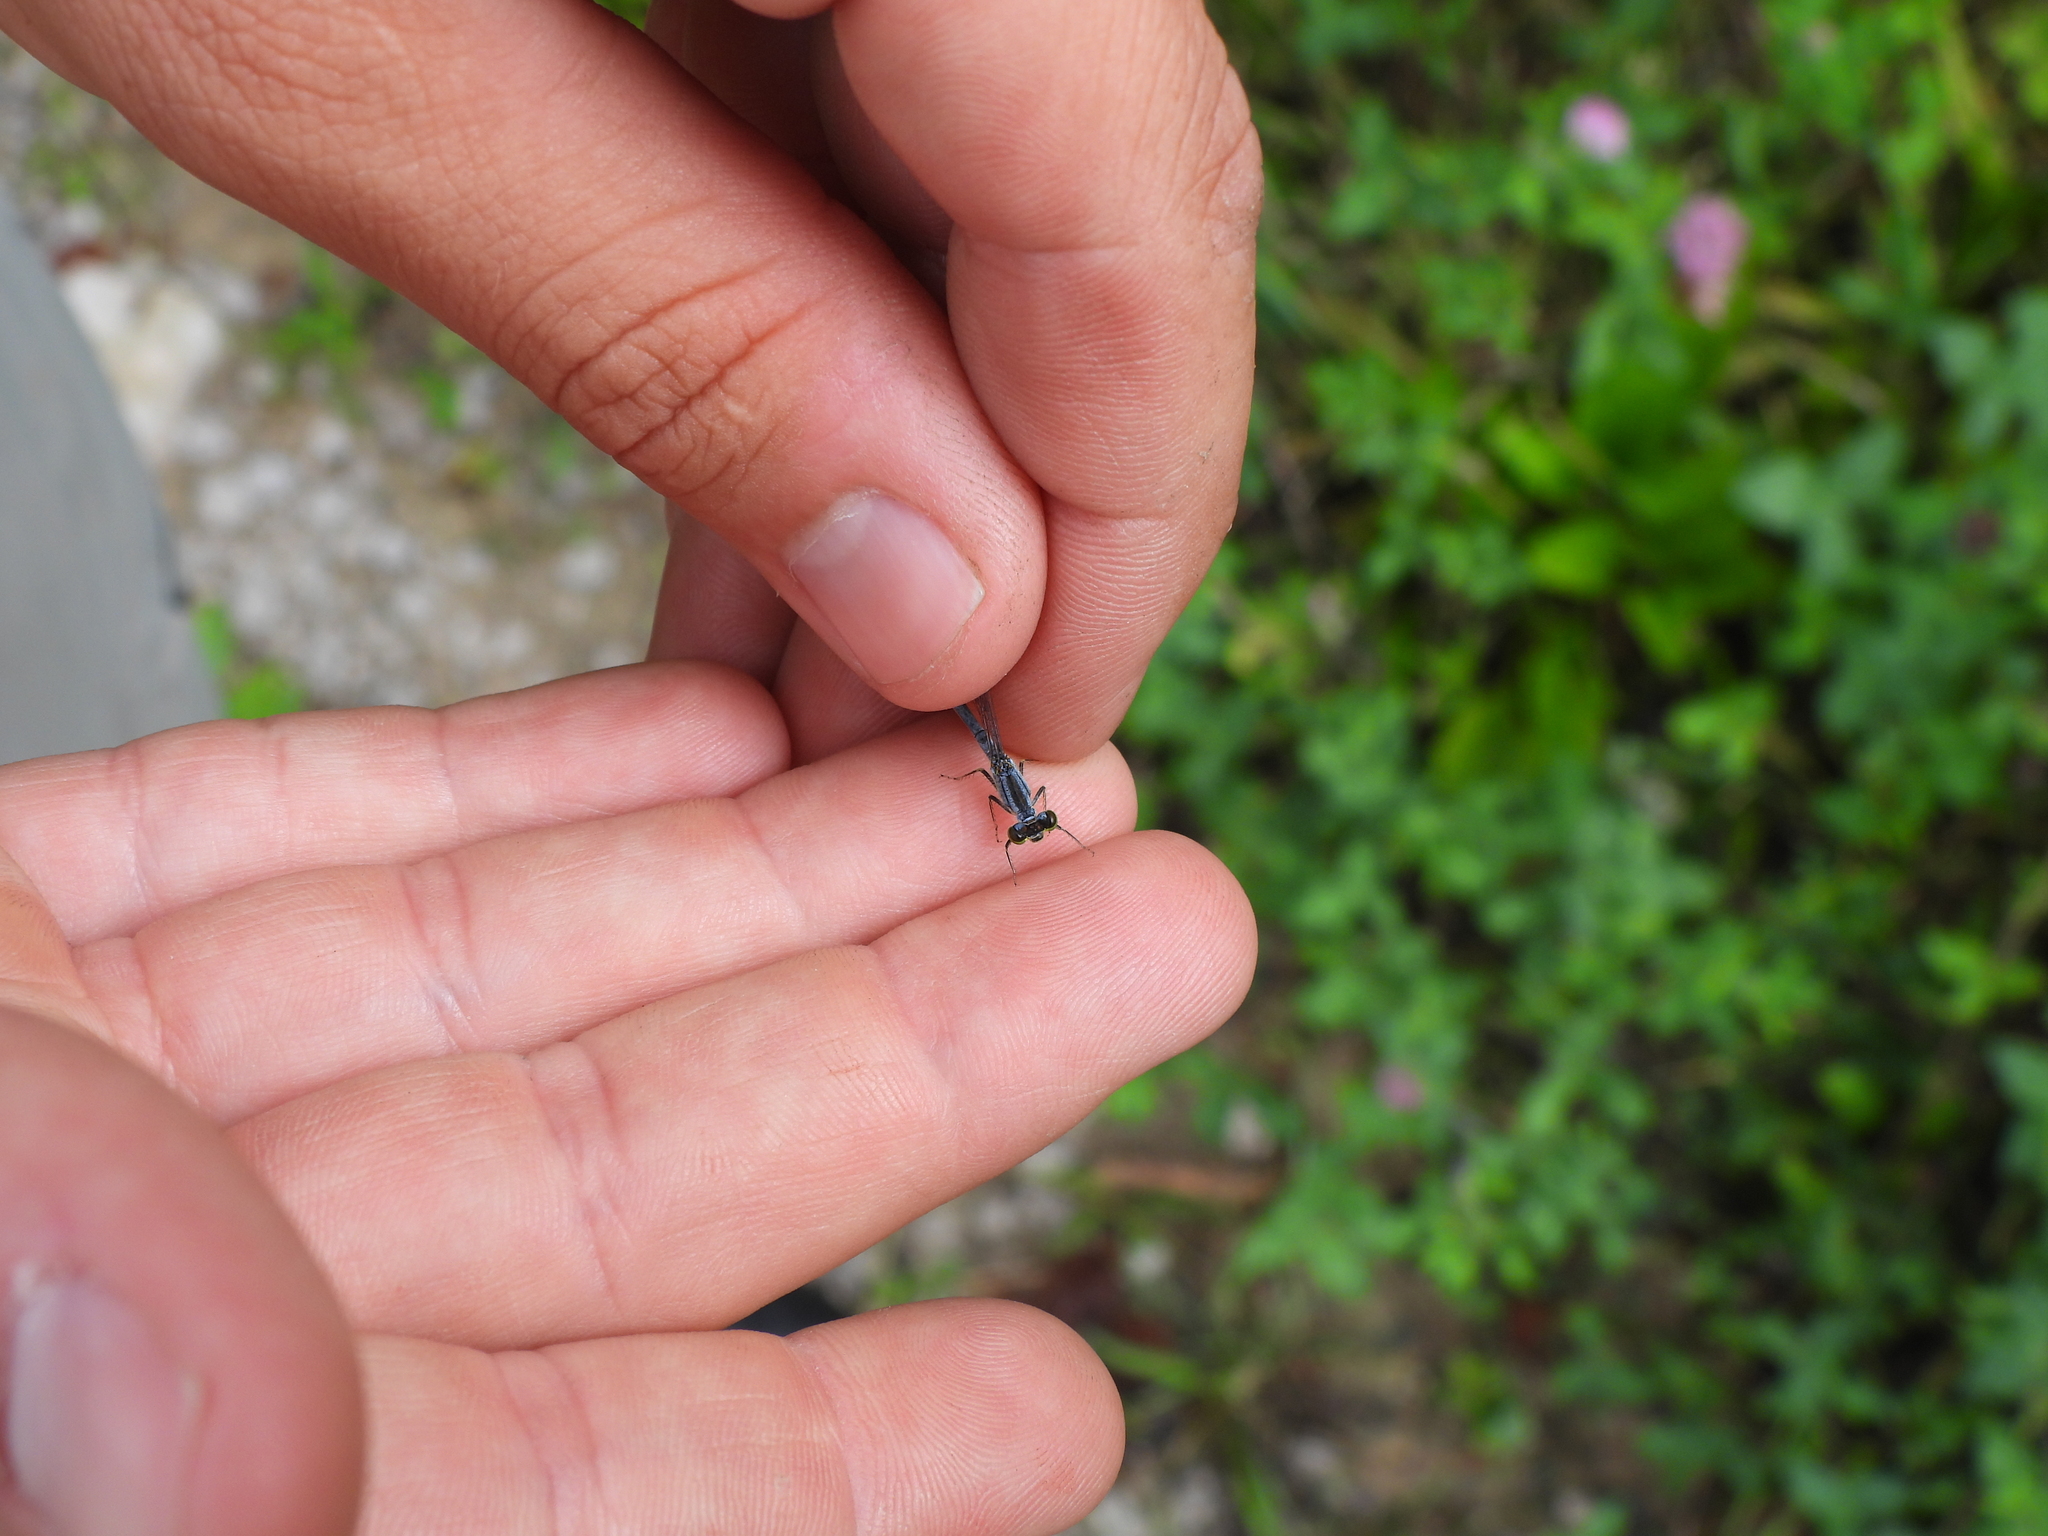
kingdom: Animalia
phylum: Arthropoda
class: Insecta
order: Odonata
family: Coenagrionidae
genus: Ischnura
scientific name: Ischnura verticalis
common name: Eastern forktail
